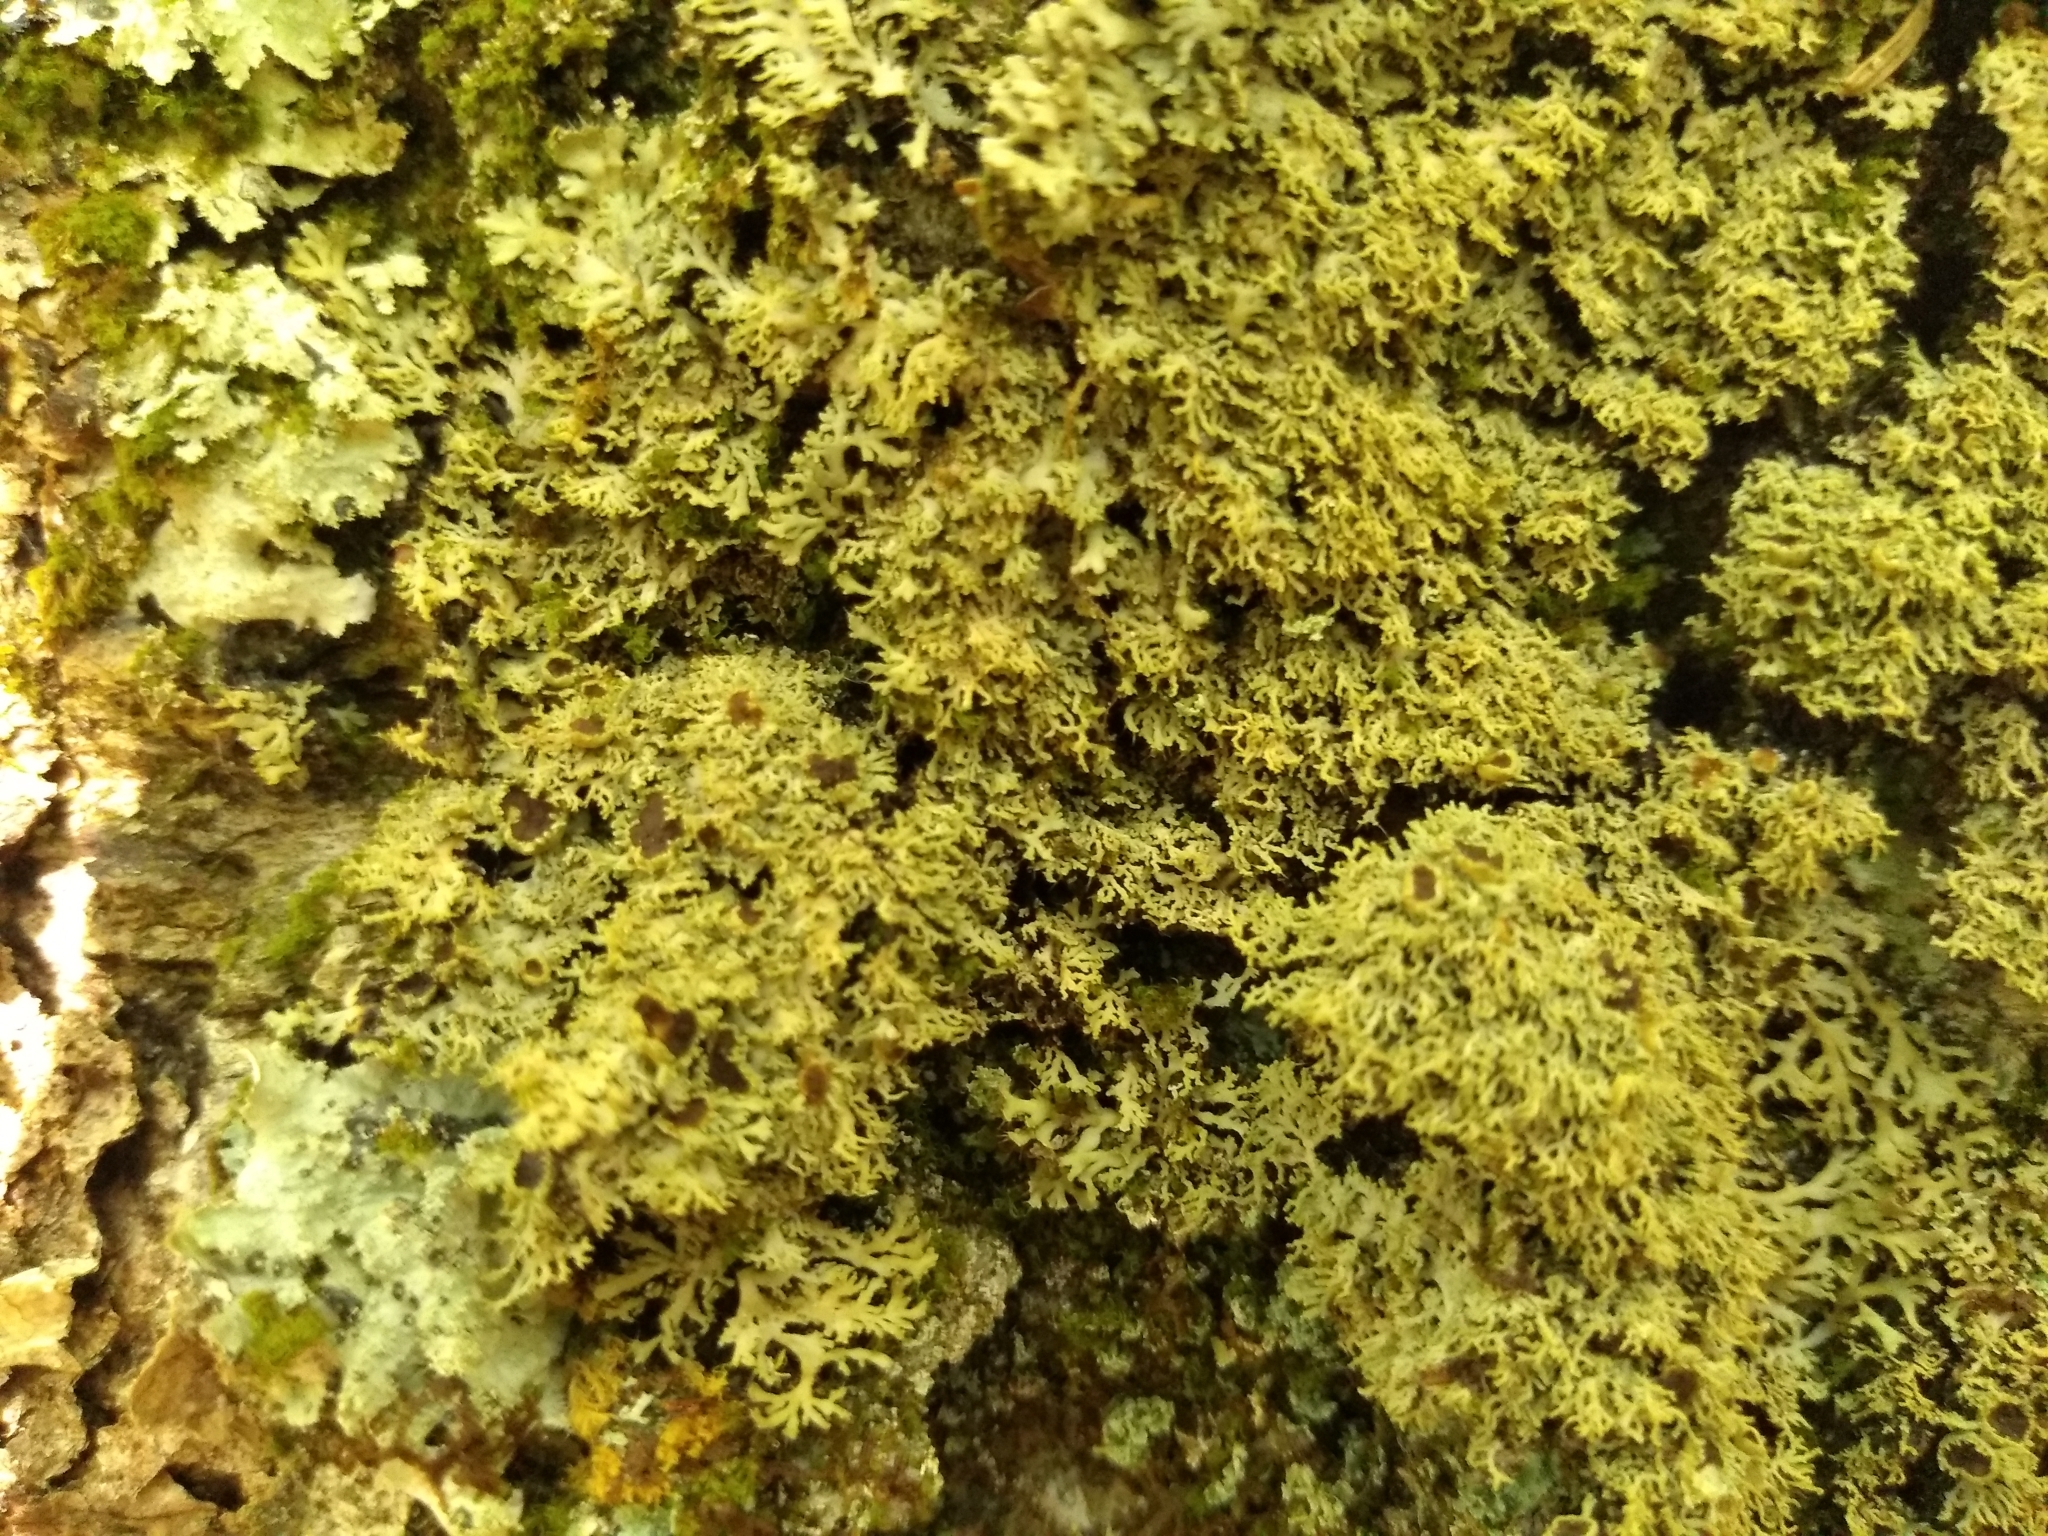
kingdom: Fungi
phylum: Ascomycota
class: Lecanoromycetes
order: Caliciales
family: Physciaceae
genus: Kurokawia
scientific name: Kurokawia palmulata
